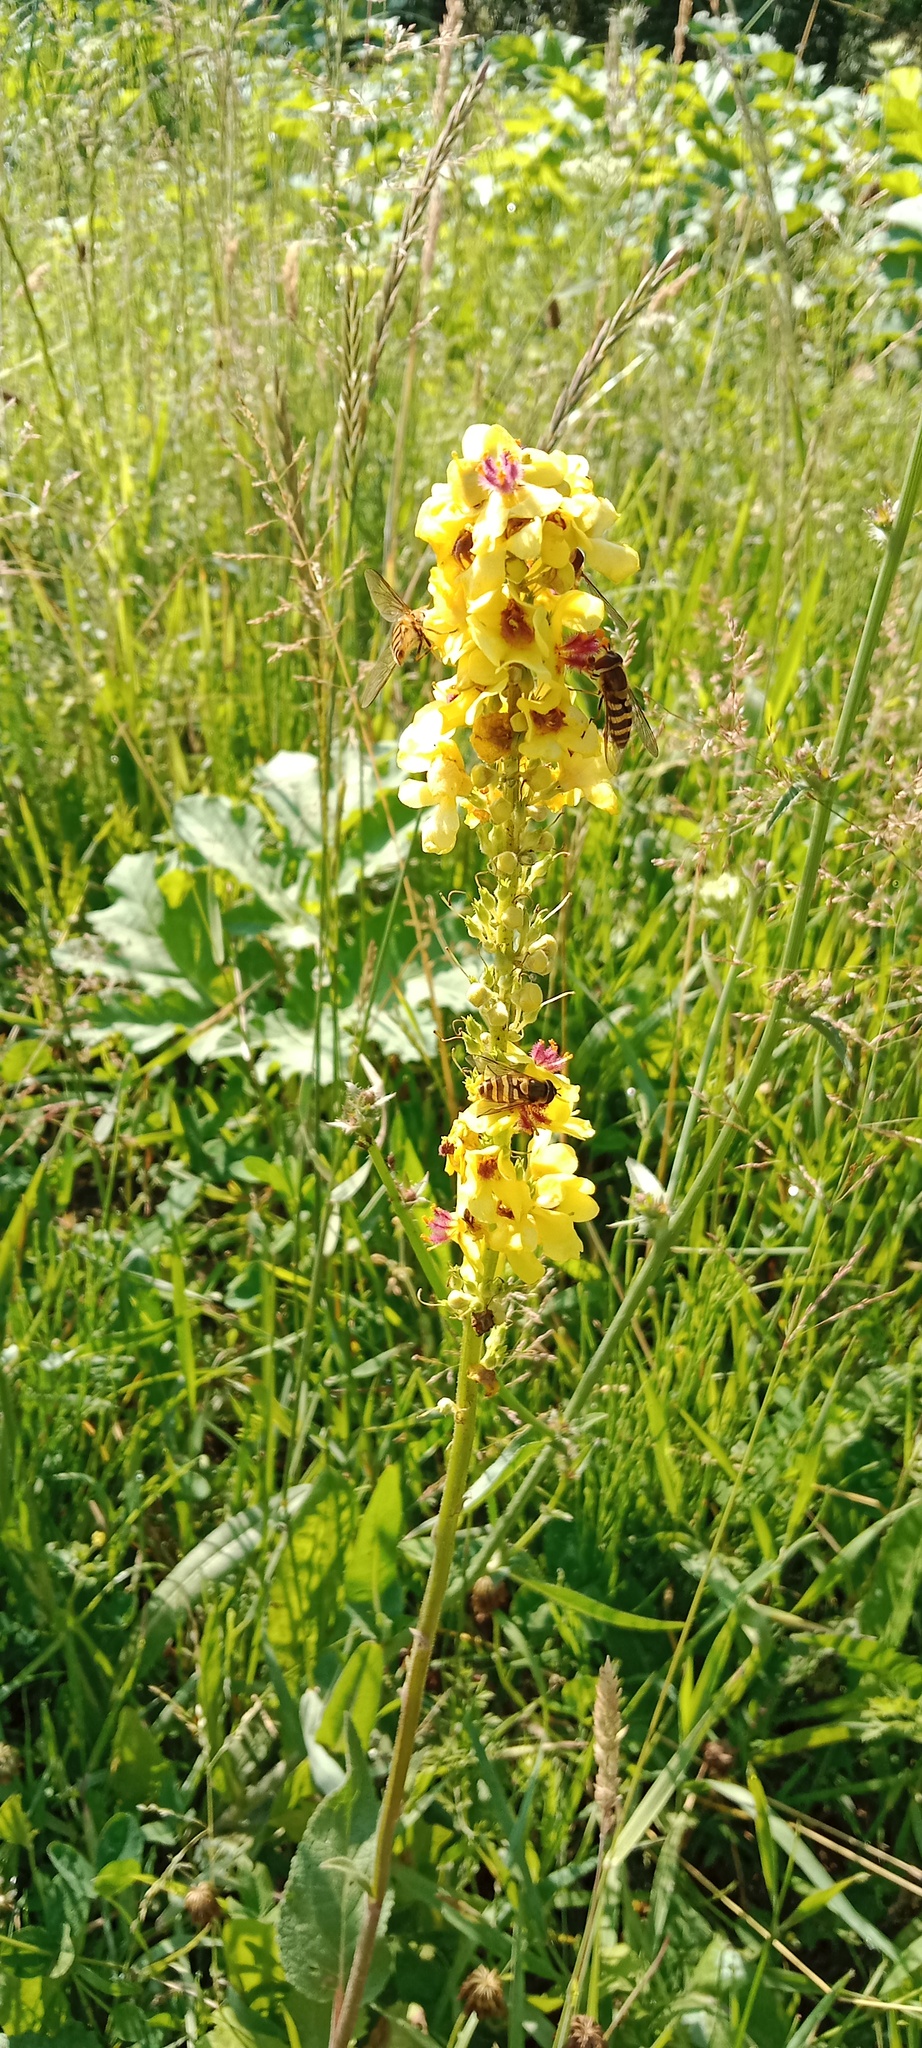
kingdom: Plantae
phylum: Tracheophyta
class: Magnoliopsida
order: Lamiales
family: Scrophulariaceae
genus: Verbascum
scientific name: Verbascum nigrum
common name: Dark mullein
